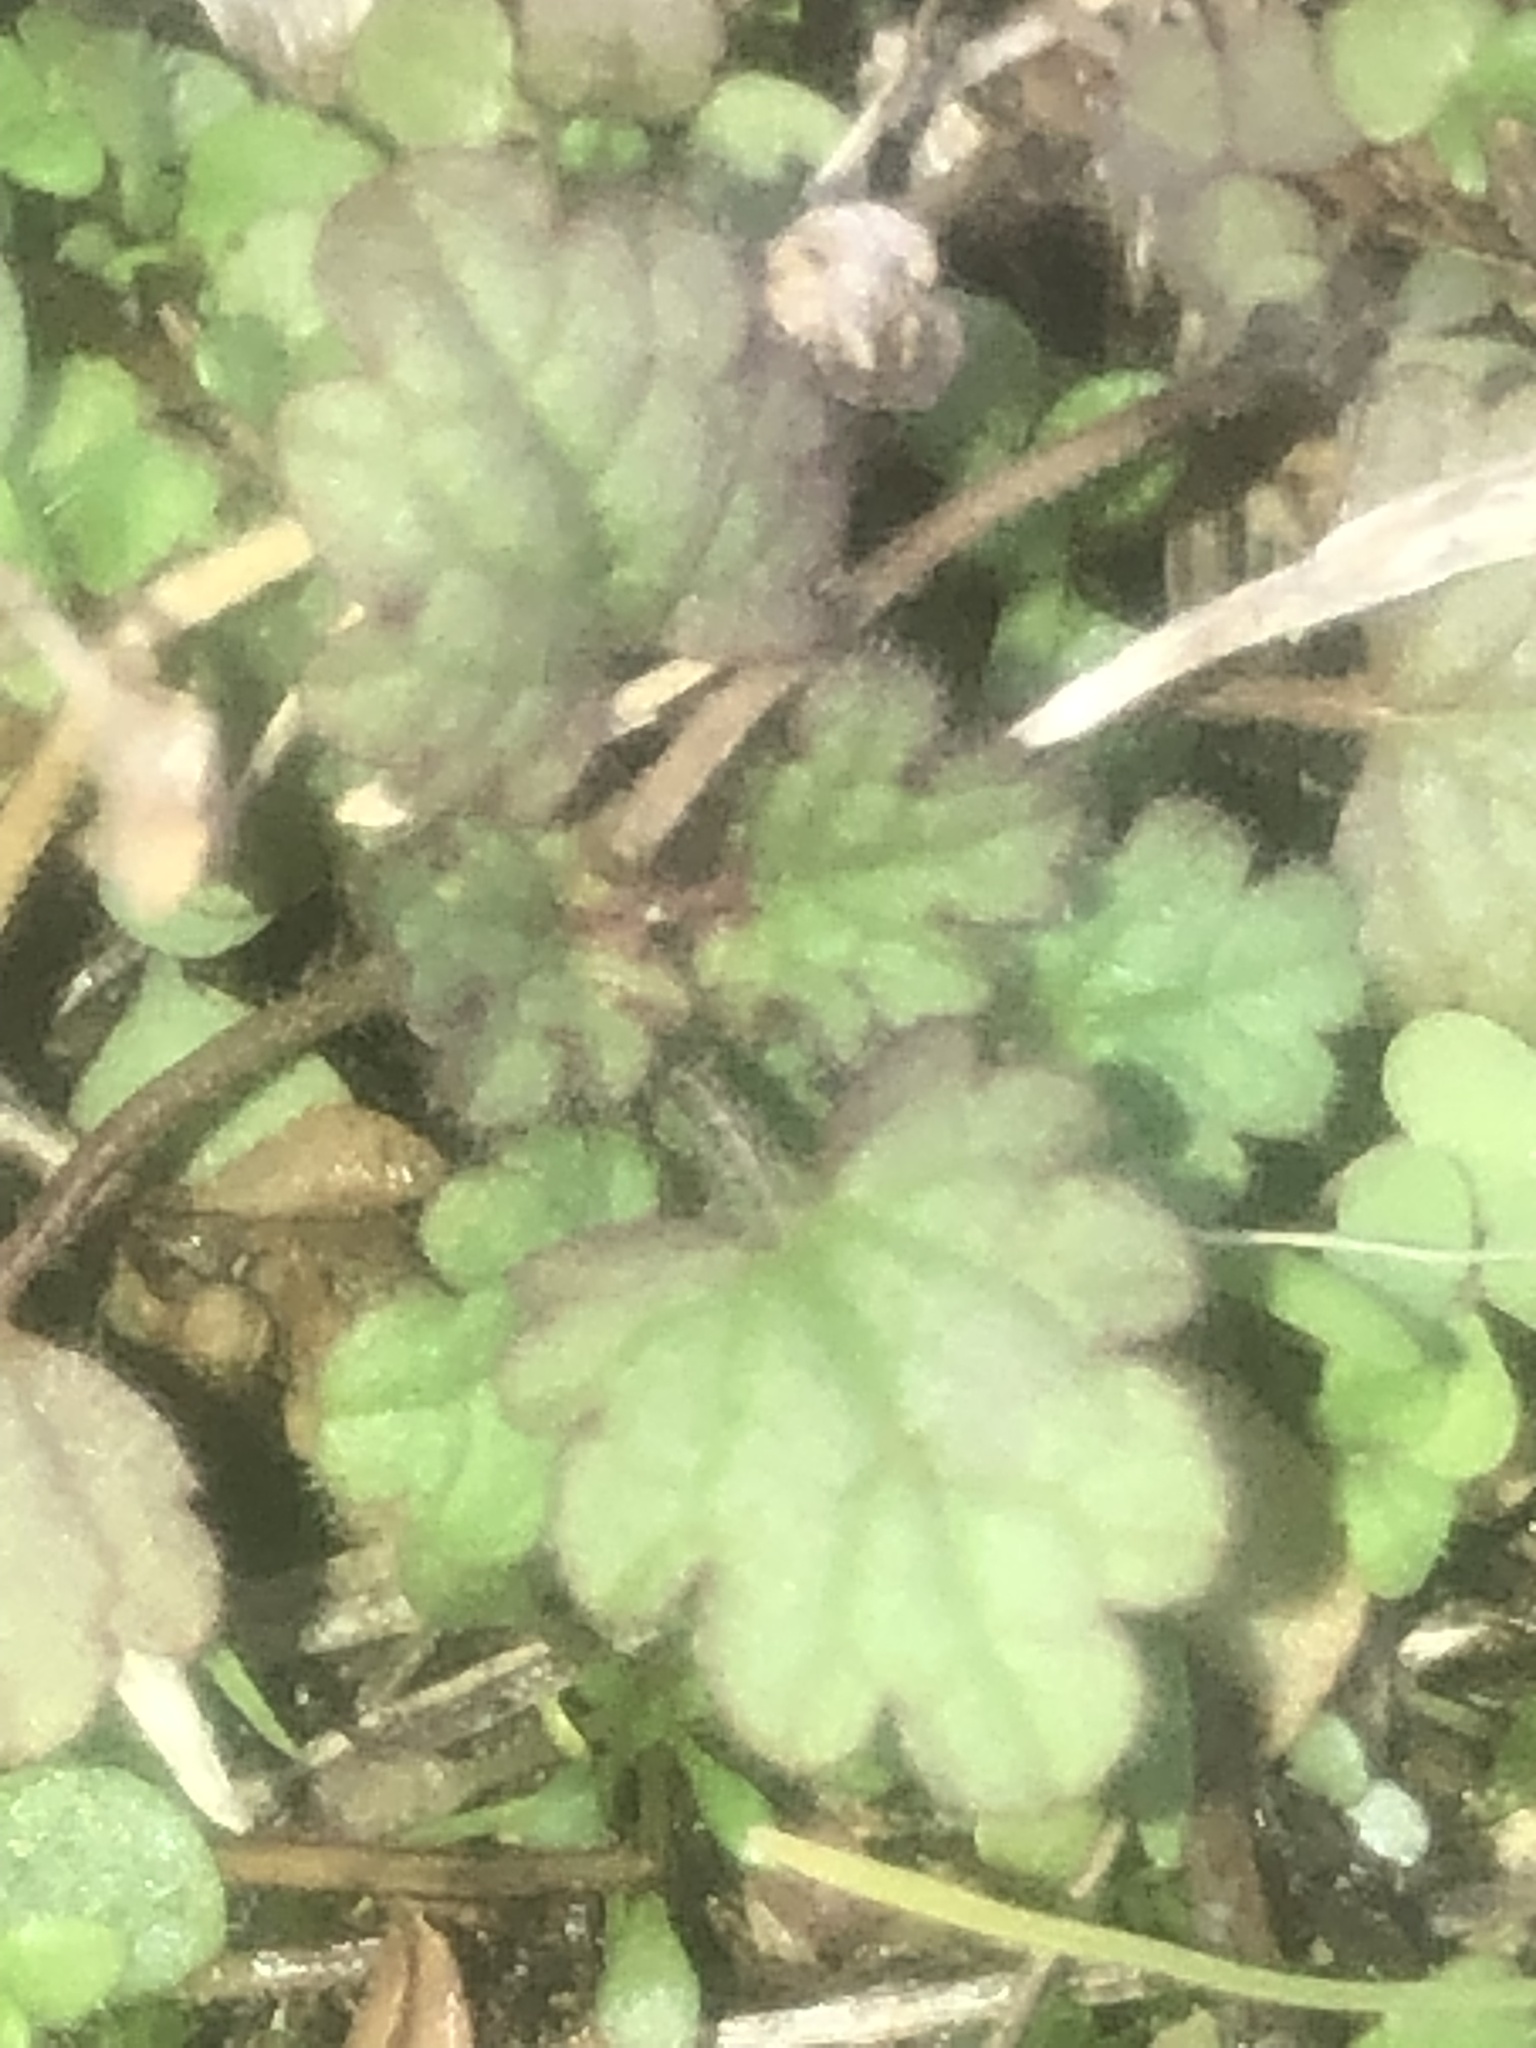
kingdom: Plantae
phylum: Tracheophyta
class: Magnoliopsida
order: Lamiales
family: Lamiaceae
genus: Lamium
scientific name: Lamium amplexicaule
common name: Henbit dead-nettle
